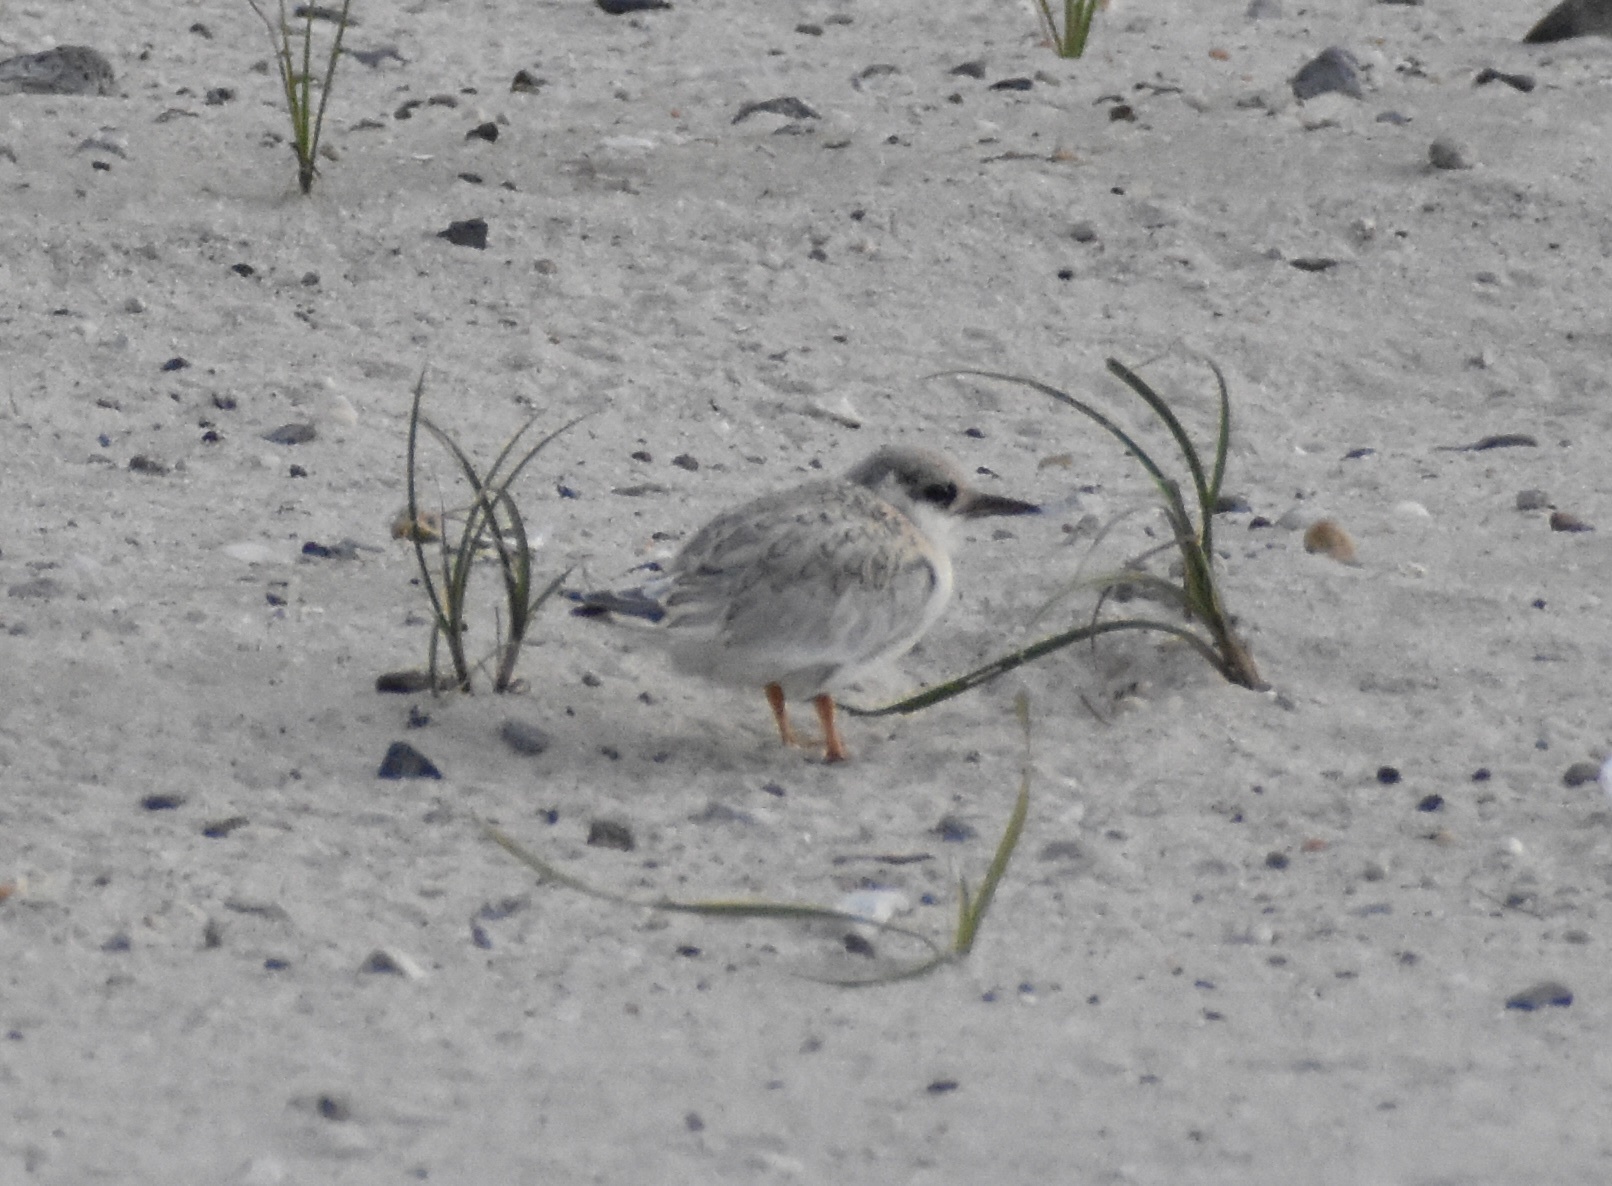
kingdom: Animalia
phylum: Chordata
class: Aves
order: Charadriiformes
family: Laridae
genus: Sternula
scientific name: Sternula antillarum
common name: Least tern
